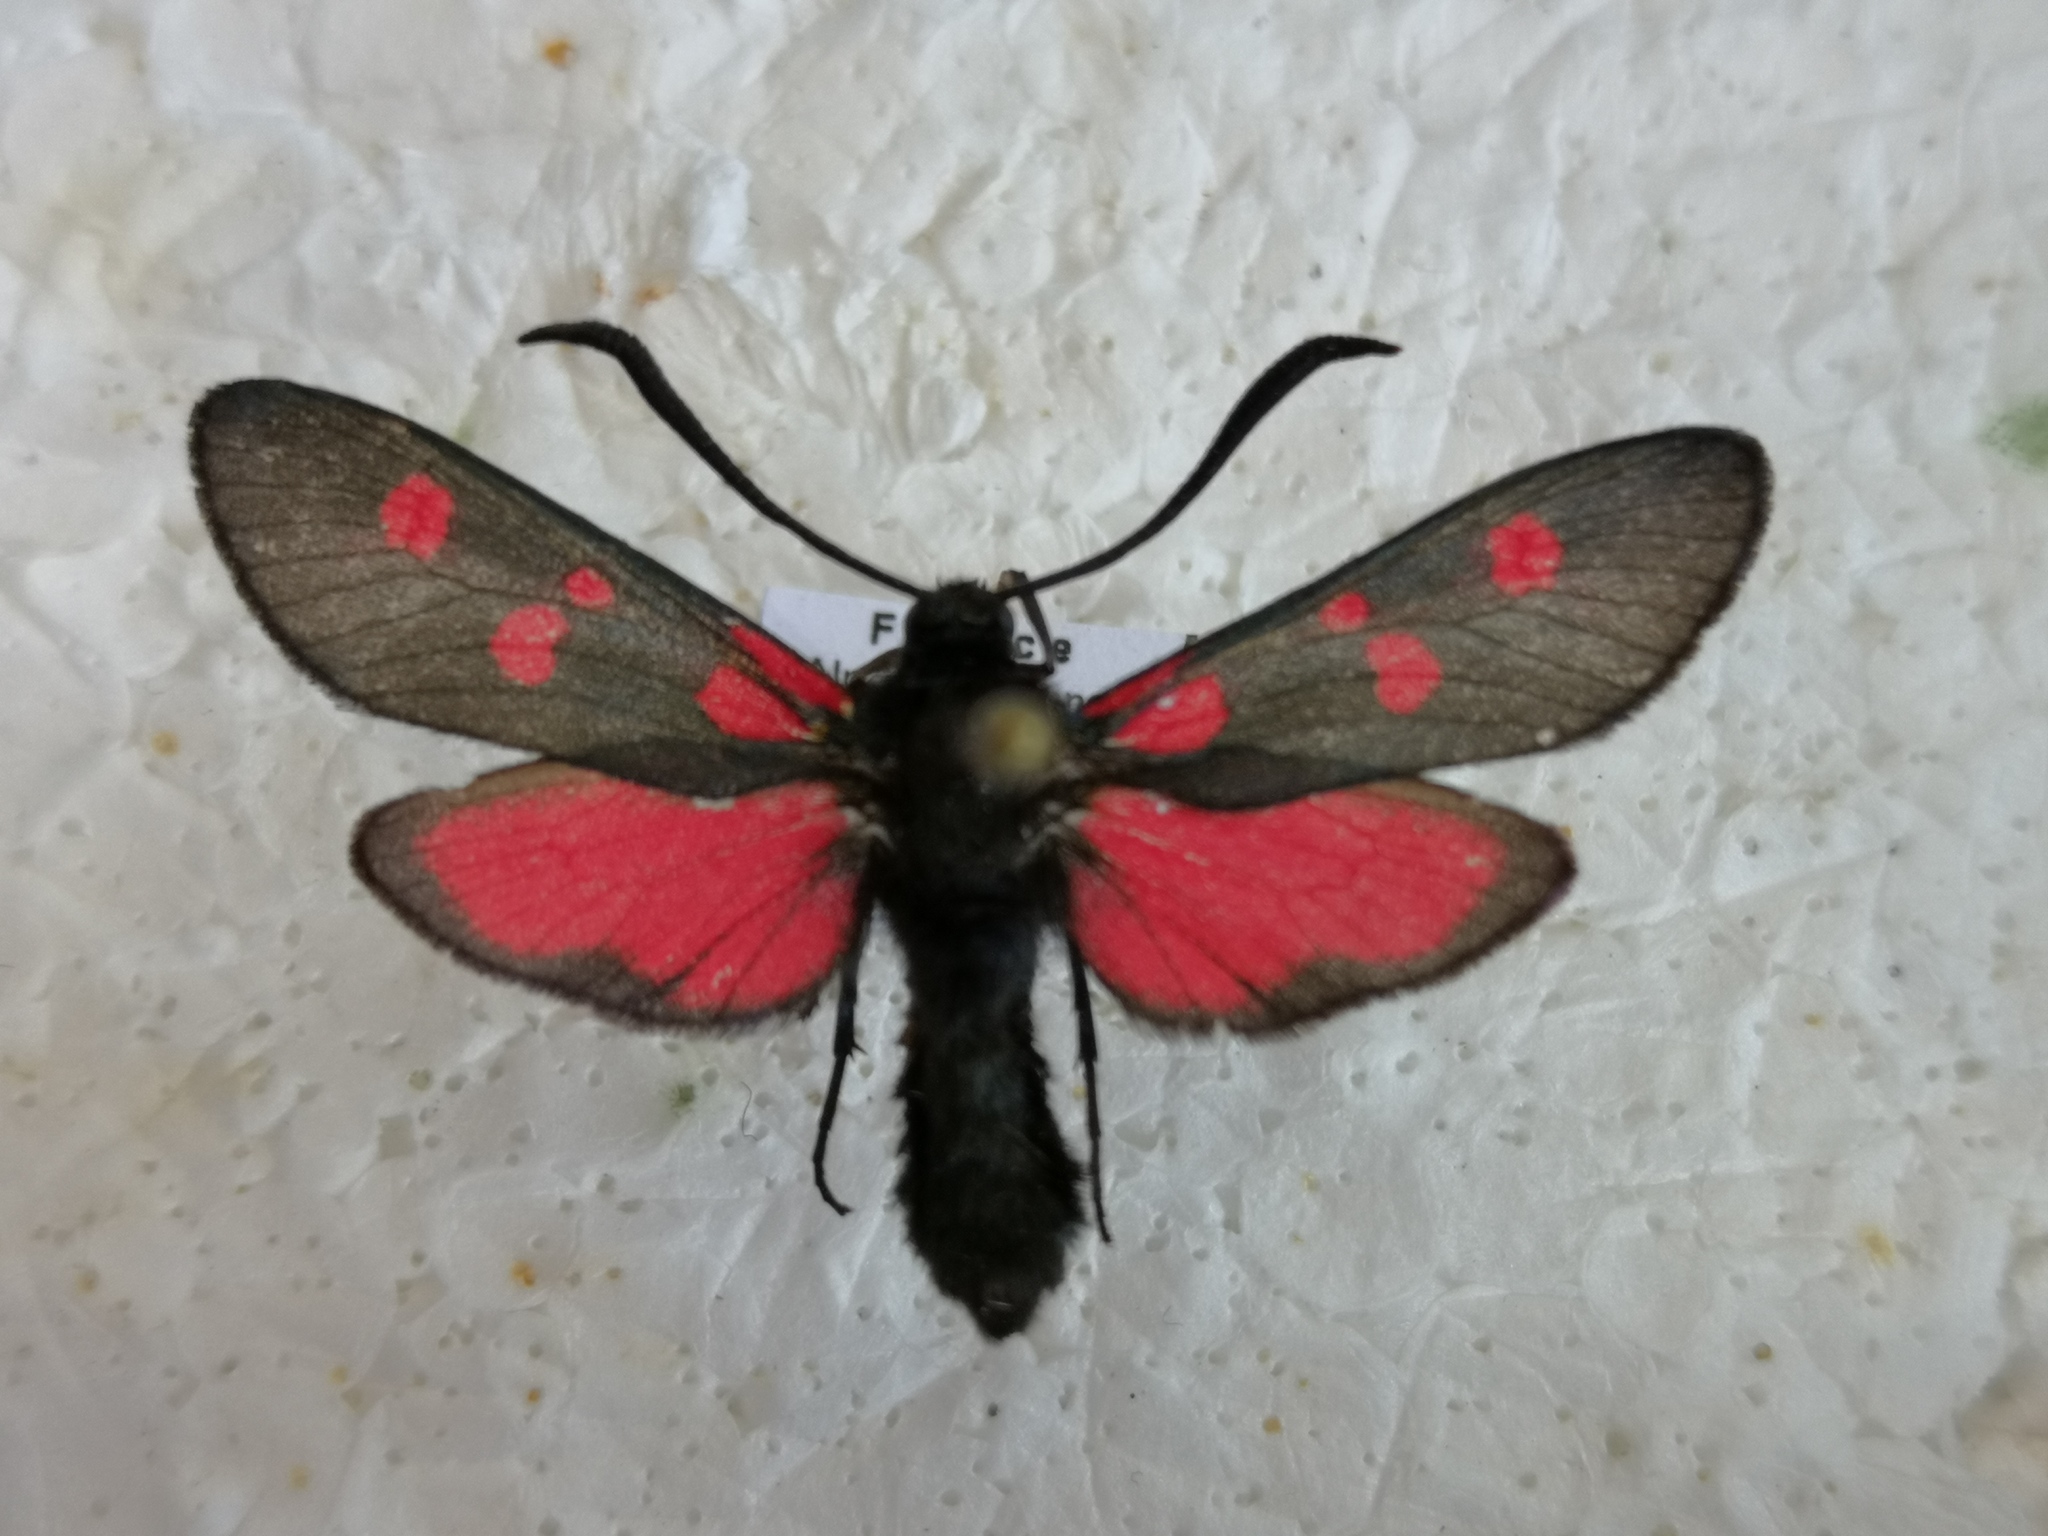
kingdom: Animalia
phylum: Arthropoda
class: Insecta
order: Lepidoptera
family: Zygaenidae
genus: Zygaena
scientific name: Zygaena lonicerae
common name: Narrow-bordered five-spot burnet
